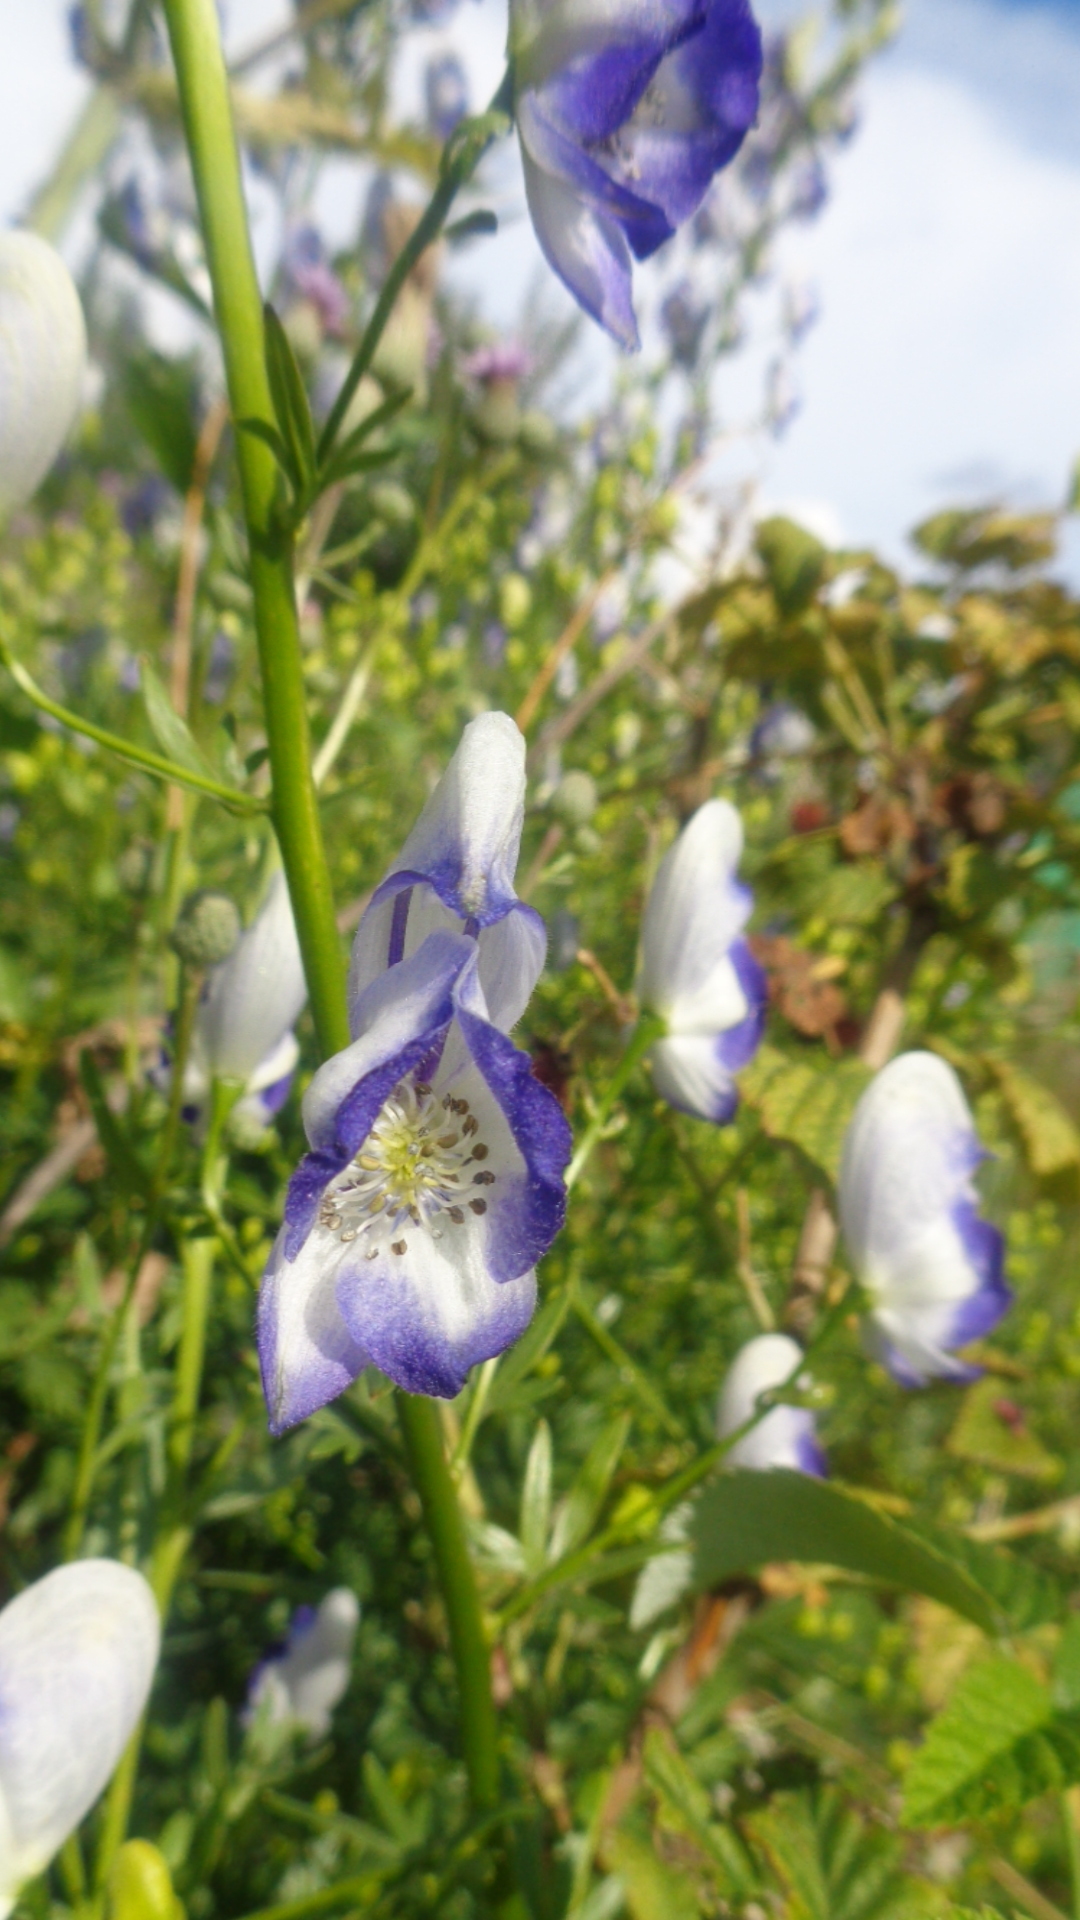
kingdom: Plantae
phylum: Tracheophyta
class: Magnoliopsida
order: Ranunculales
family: Ranunculaceae
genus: Aconitum
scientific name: Aconitum variegatum
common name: Manchurian monkshood
